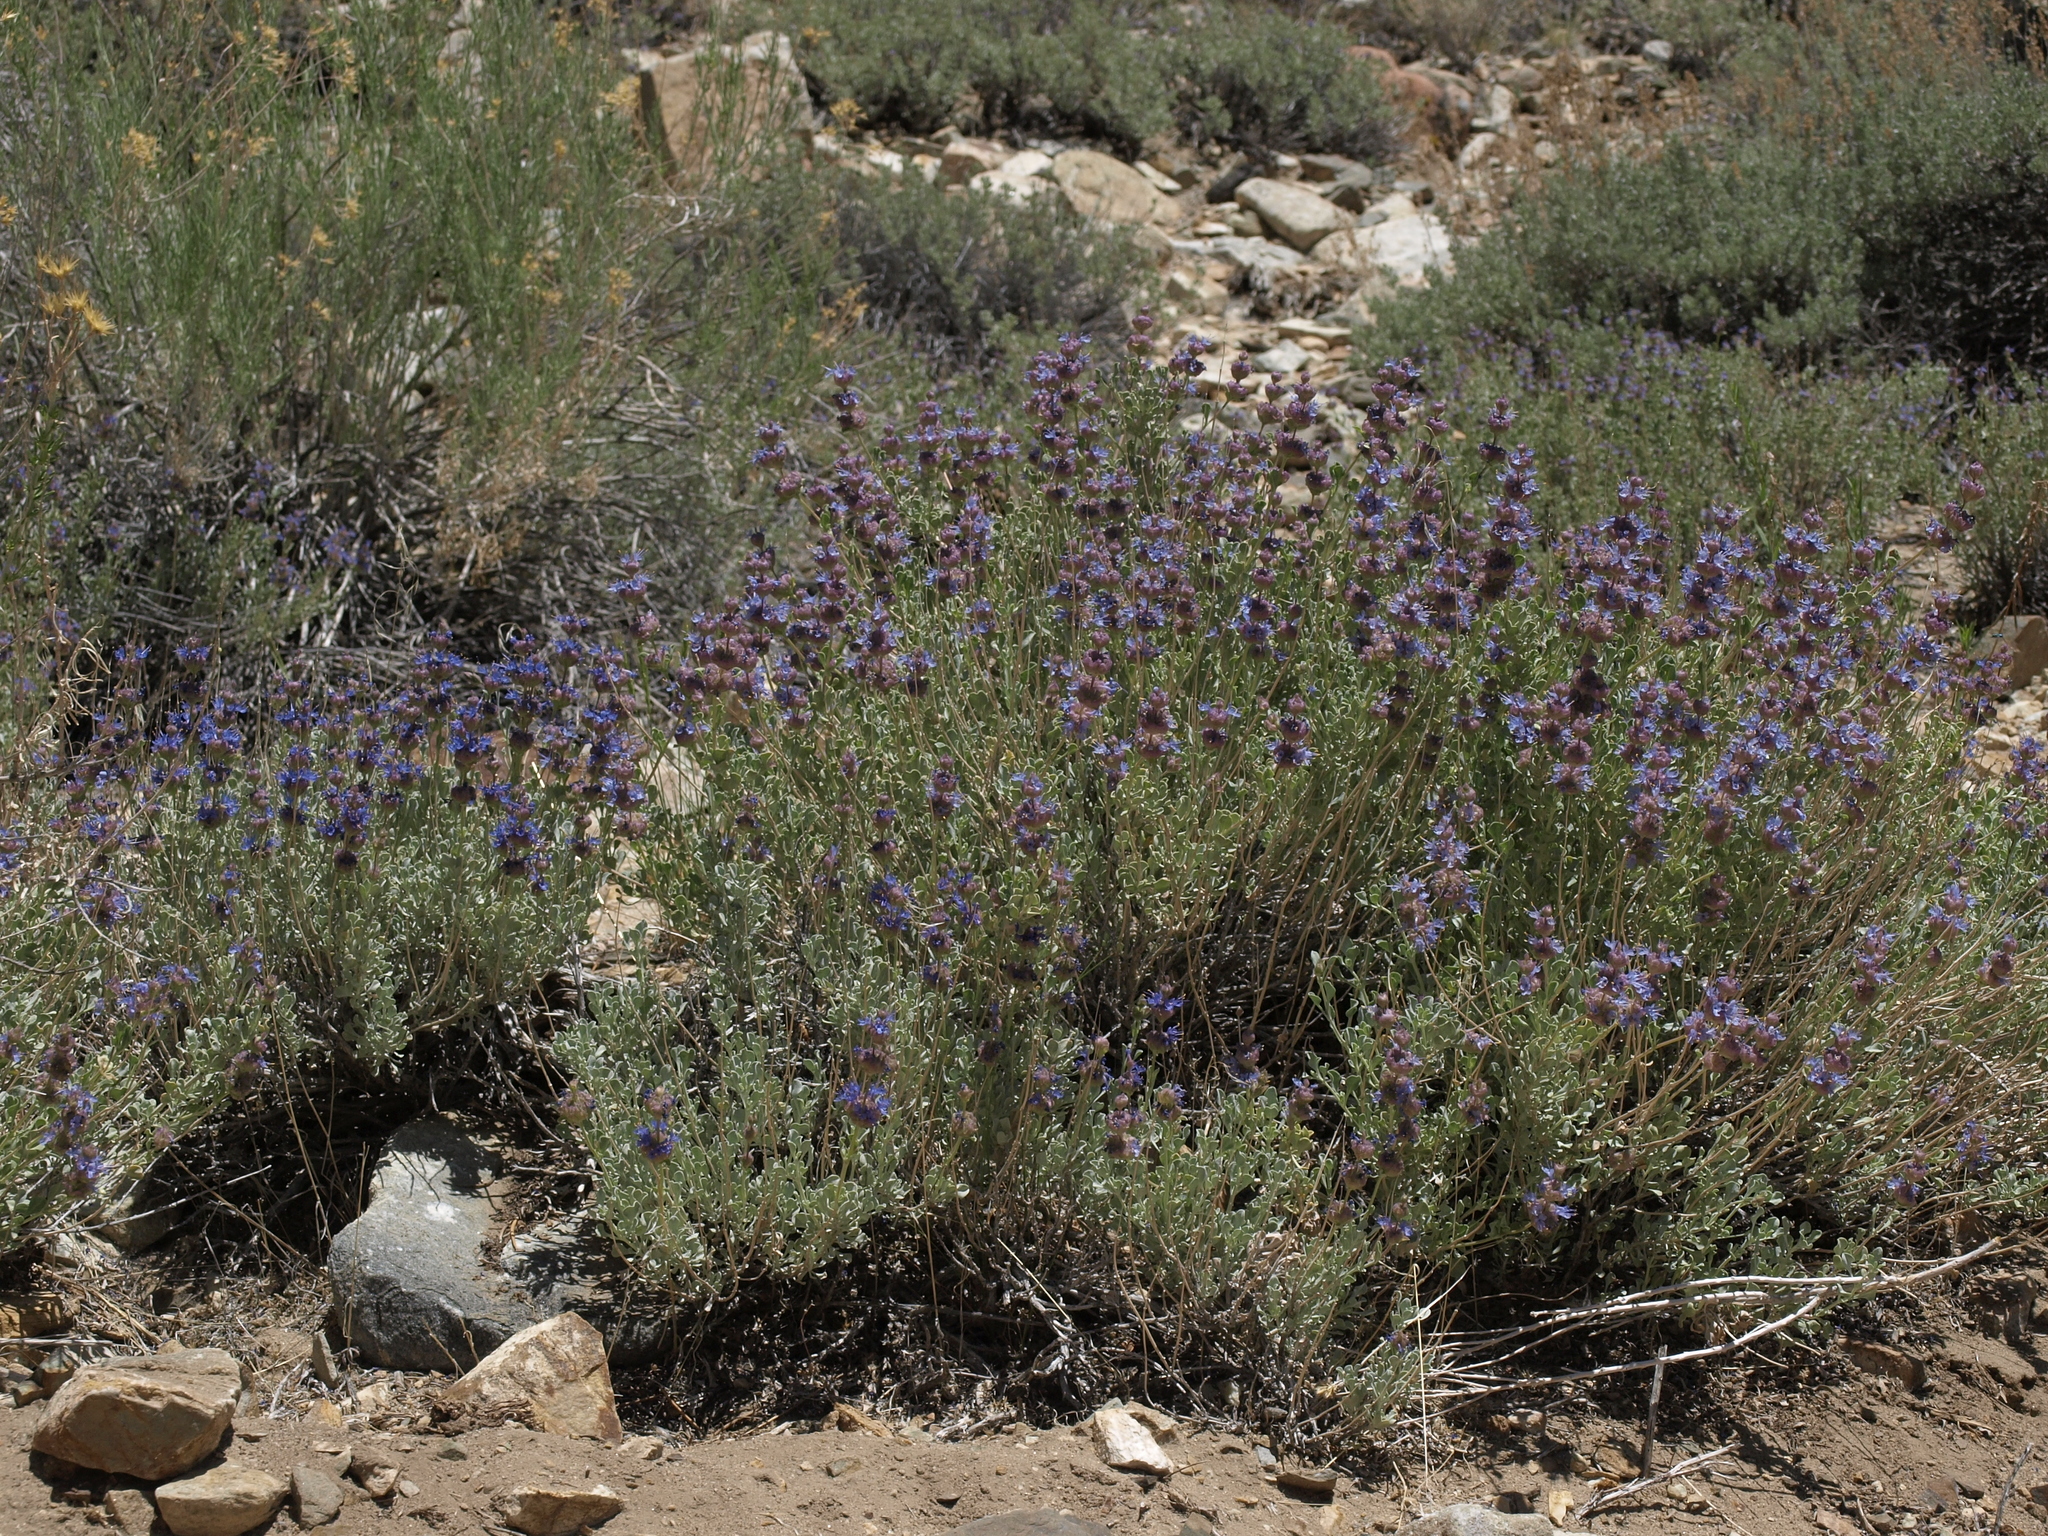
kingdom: Plantae
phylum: Tracheophyta
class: Magnoliopsida
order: Lamiales
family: Lamiaceae
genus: Salvia
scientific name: Salvia dorrii
